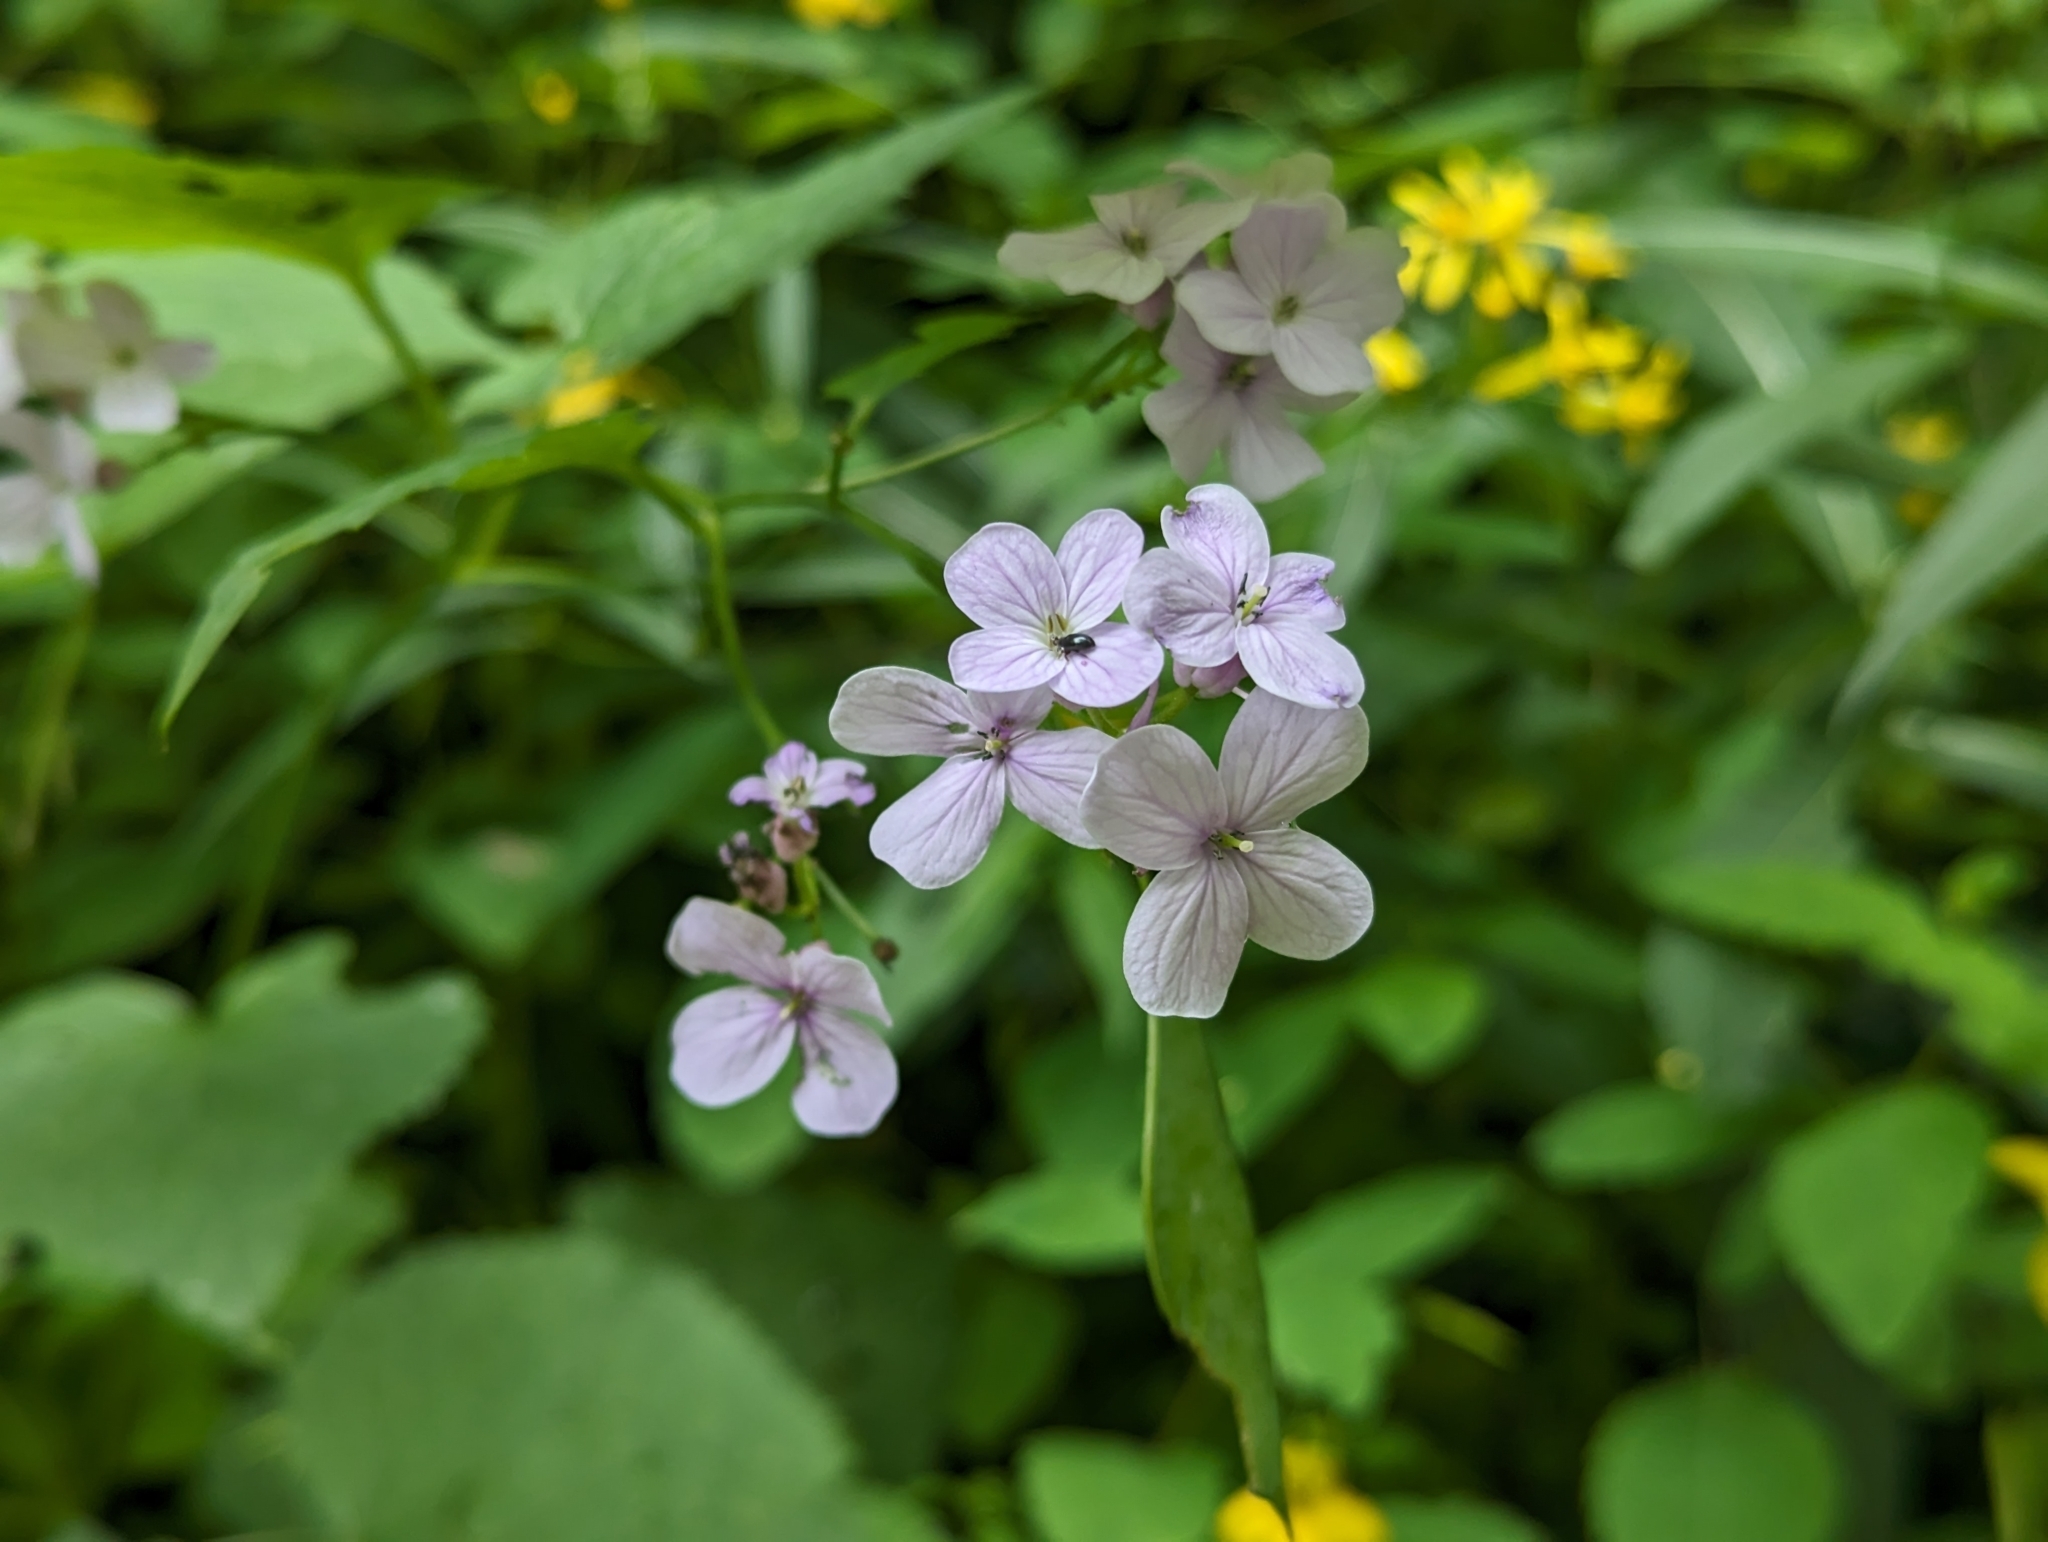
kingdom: Plantae
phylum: Tracheophyta
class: Magnoliopsida
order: Brassicales
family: Brassicaceae
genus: Lunaria
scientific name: Lunaria rediviva
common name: Perennial honesty
